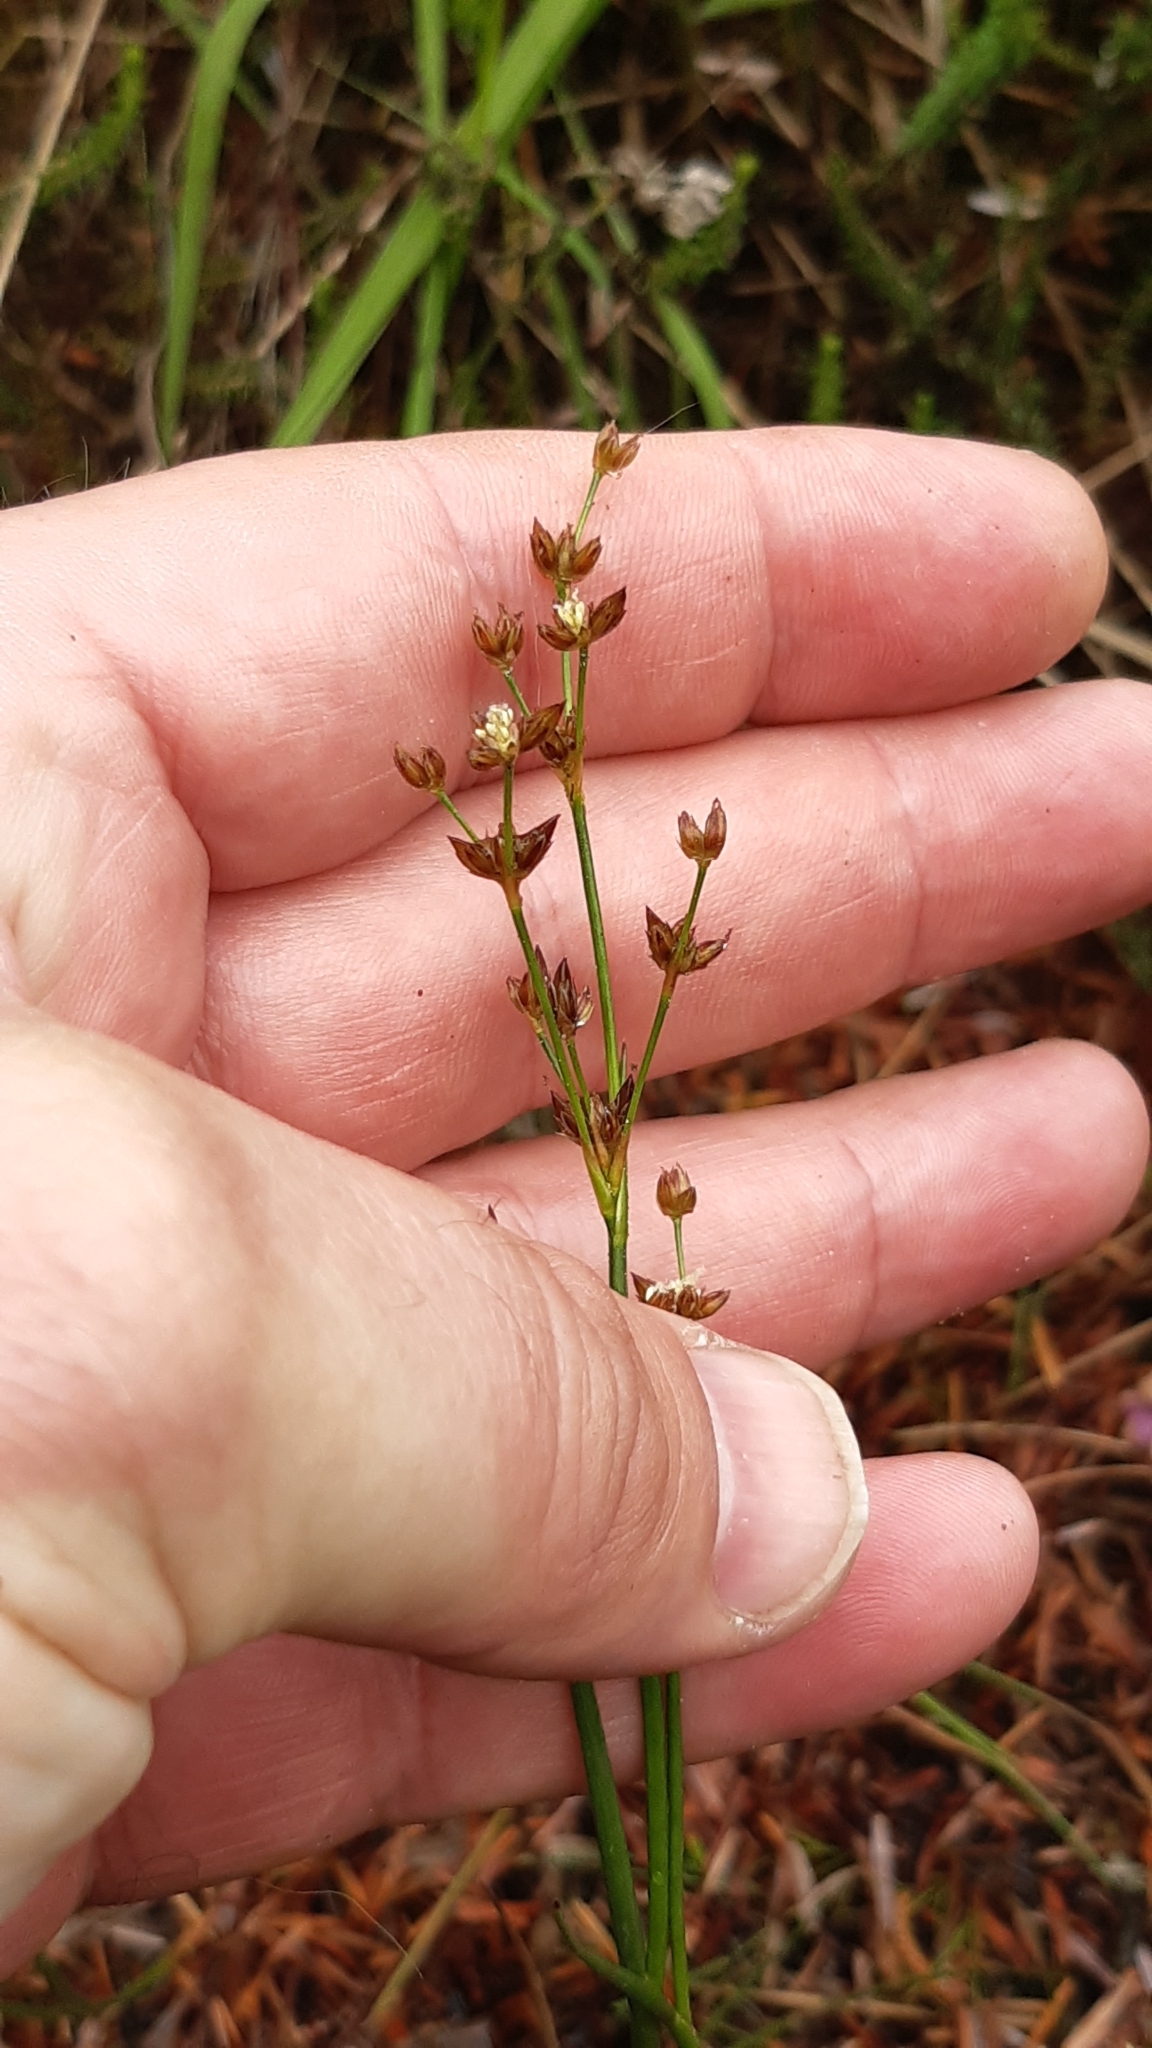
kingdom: Plantae
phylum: Tracheophyta
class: Liliopsida
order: Poales
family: Juncaceae
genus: Juncus
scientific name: Juncus articulatus
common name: Jointed rush
